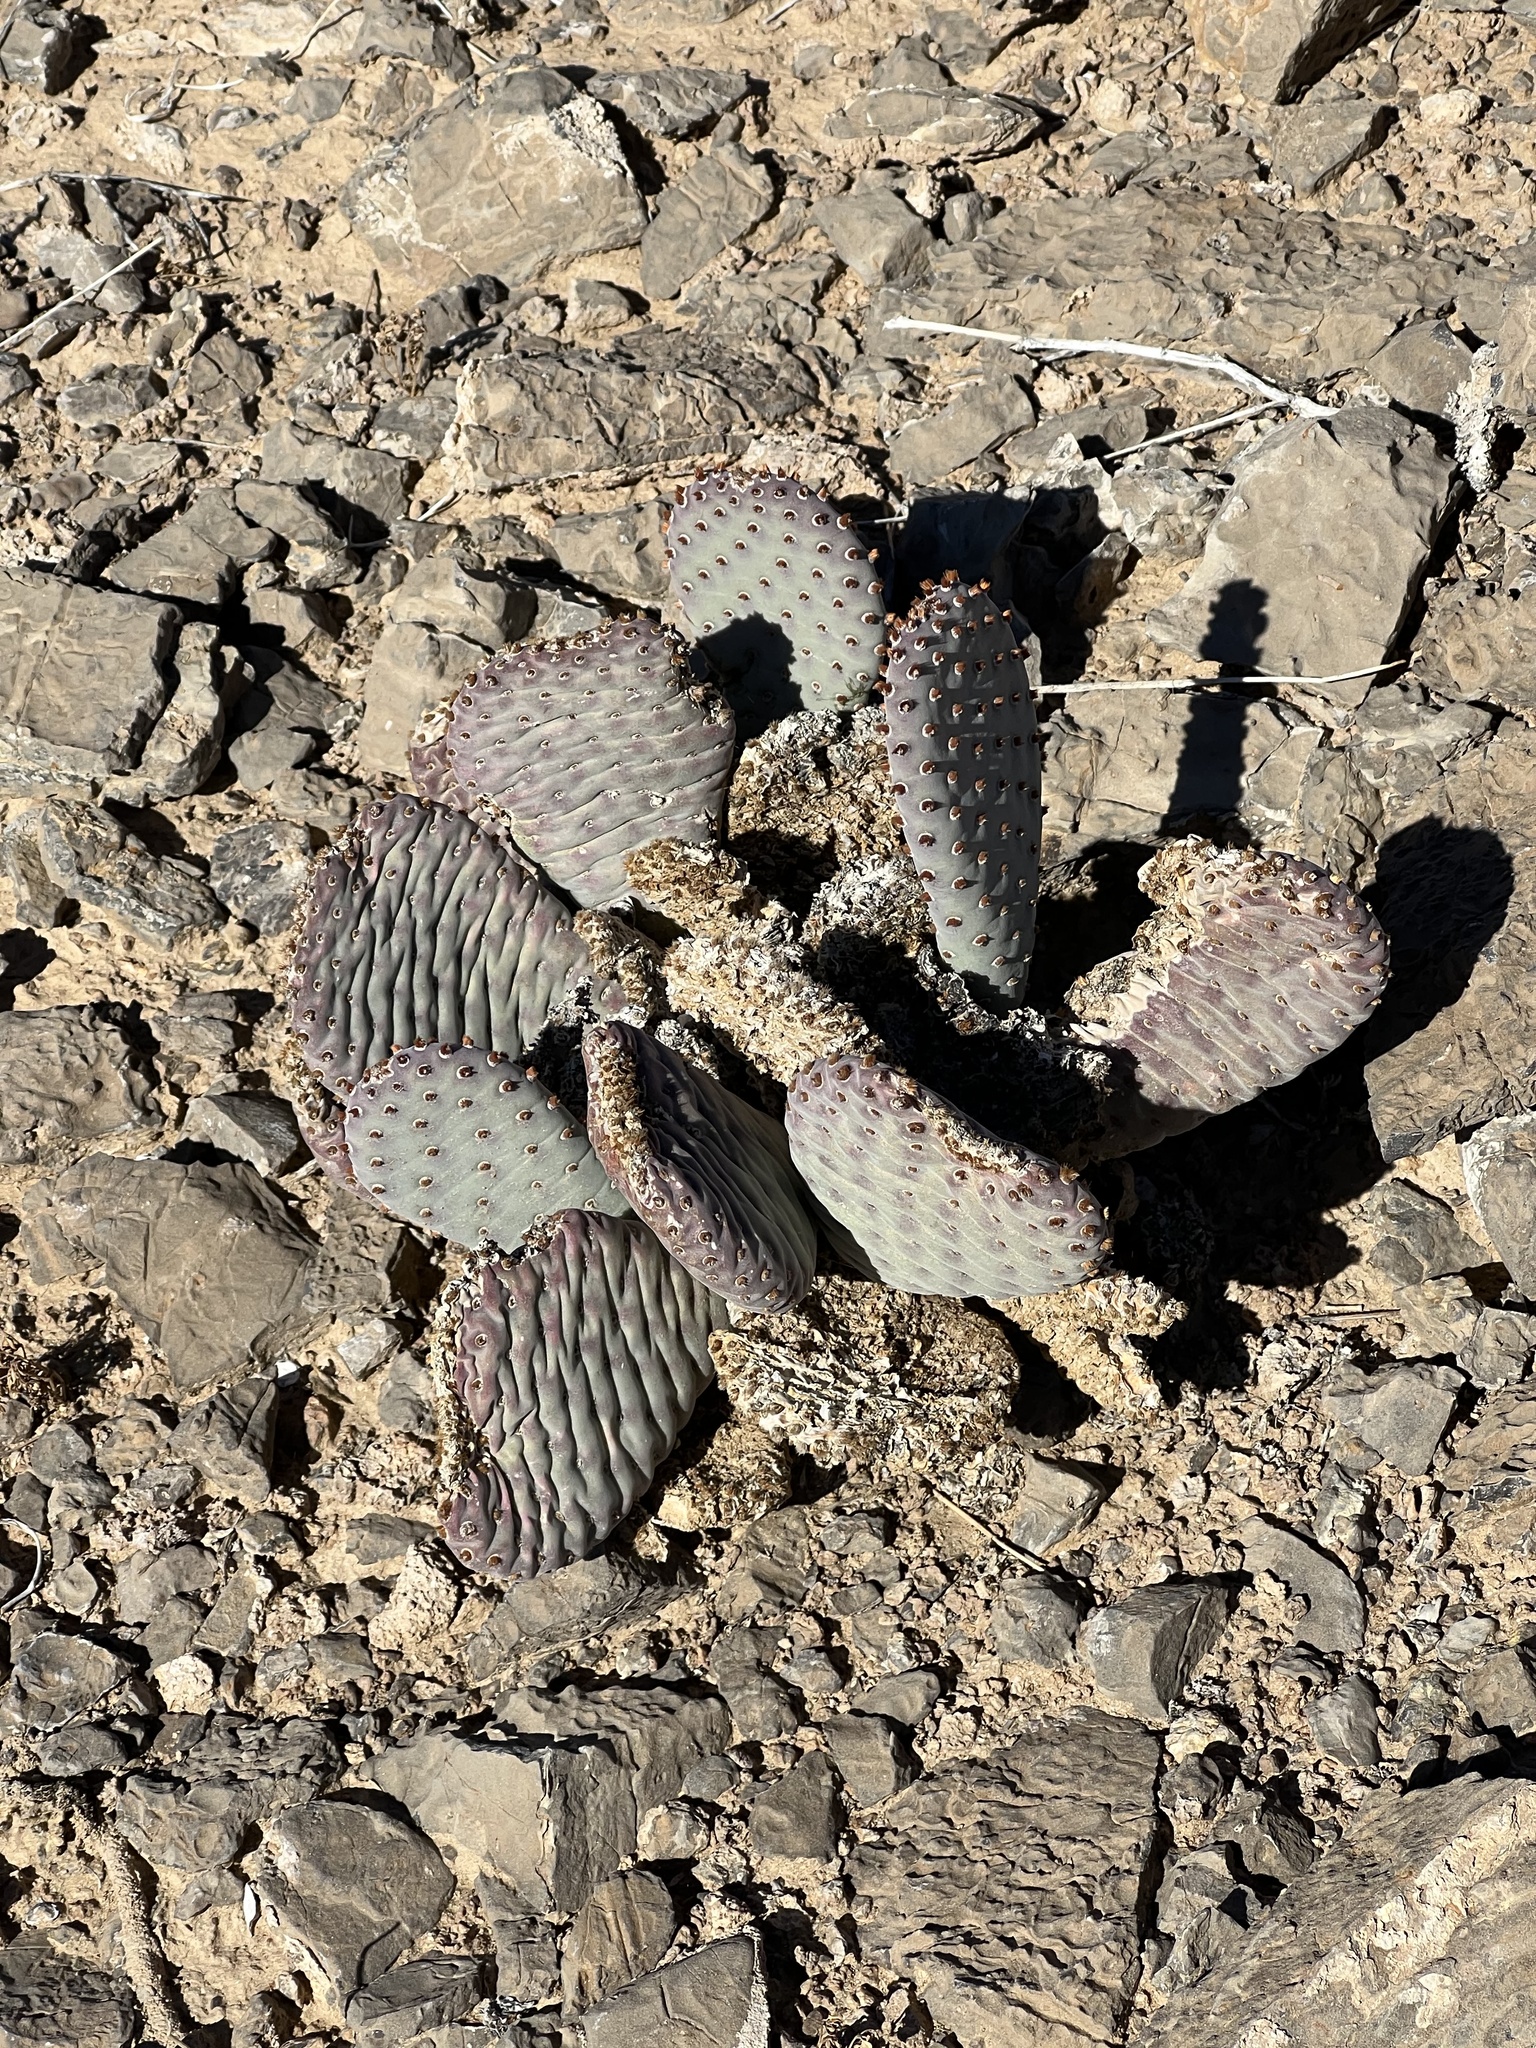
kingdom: Plantae
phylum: Tracheophyta
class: Magnoliopsida
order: Caryophyllales
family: Cactaceae
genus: Opuntia
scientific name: Opuntia basilaris
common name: Beavertail prickly-pear
